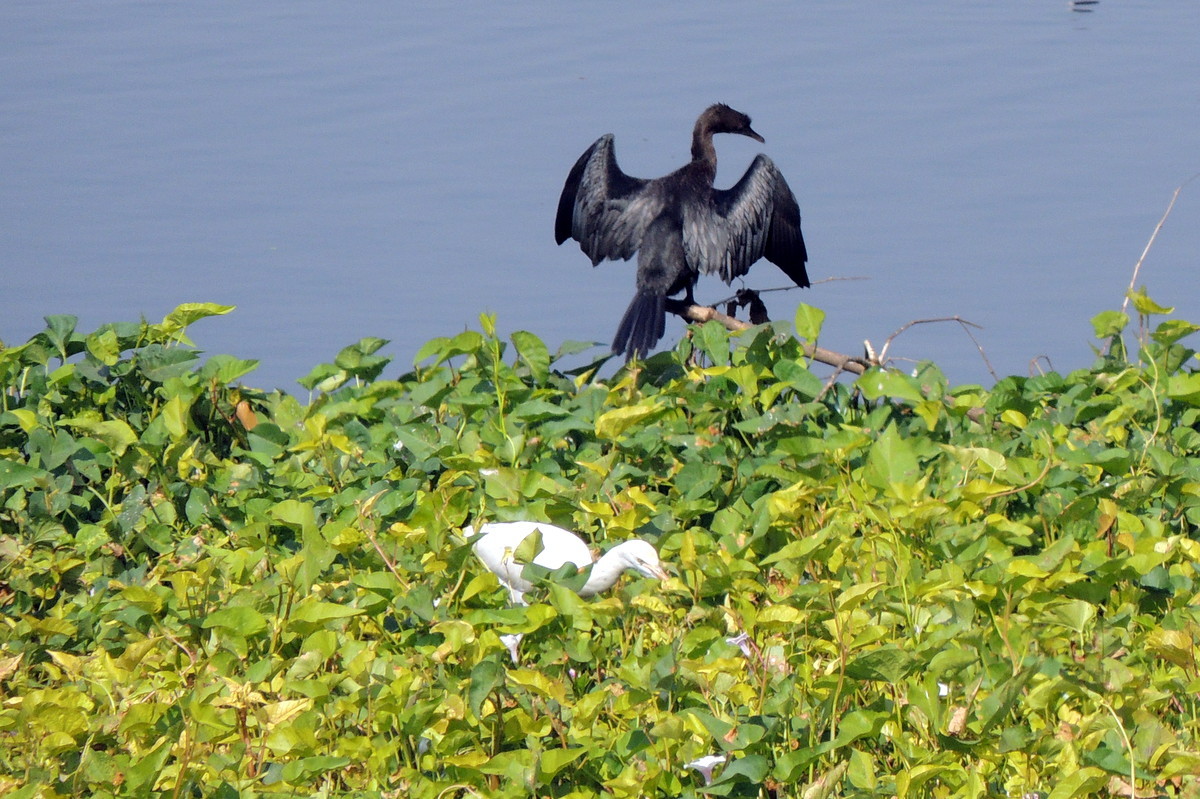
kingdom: Animalia
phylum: Chordata
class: Aves
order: Suliformes
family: Phalacrocoracidae
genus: Microcarbo
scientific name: Microcarbo niger
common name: Little cormorant
